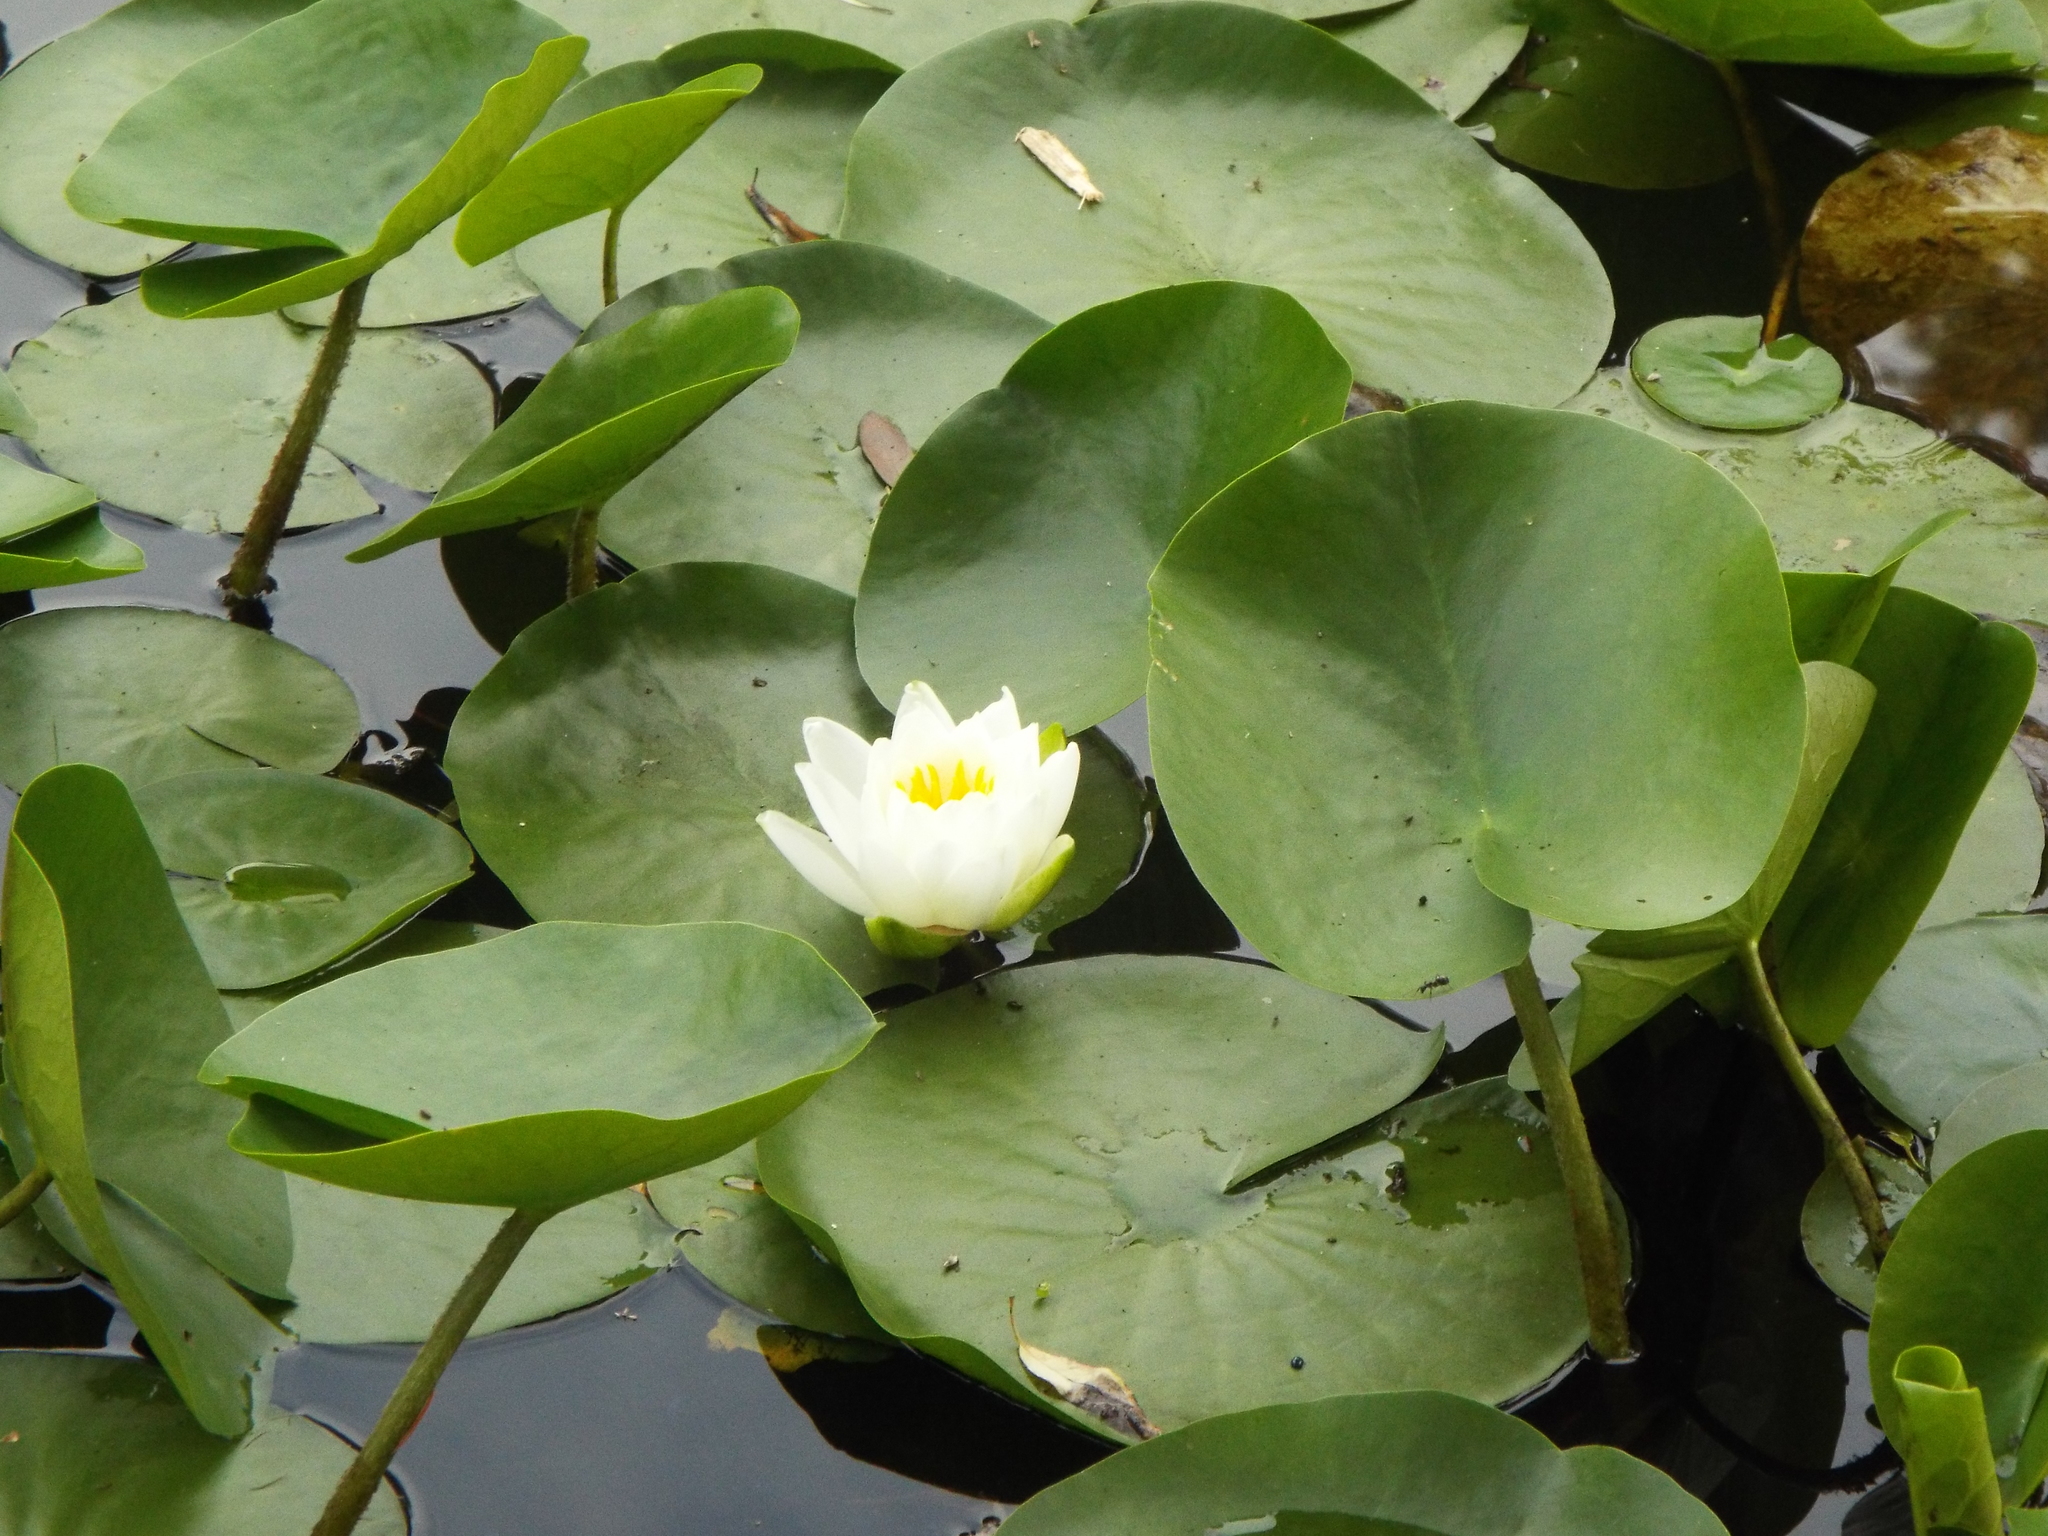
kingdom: Plantae
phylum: Tracheophyta
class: Magnoliopsida
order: Nymphaeales
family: Nymphaeaceae
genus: Nymphaea
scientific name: Nymphaea odorata
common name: Fragrant water-lily
